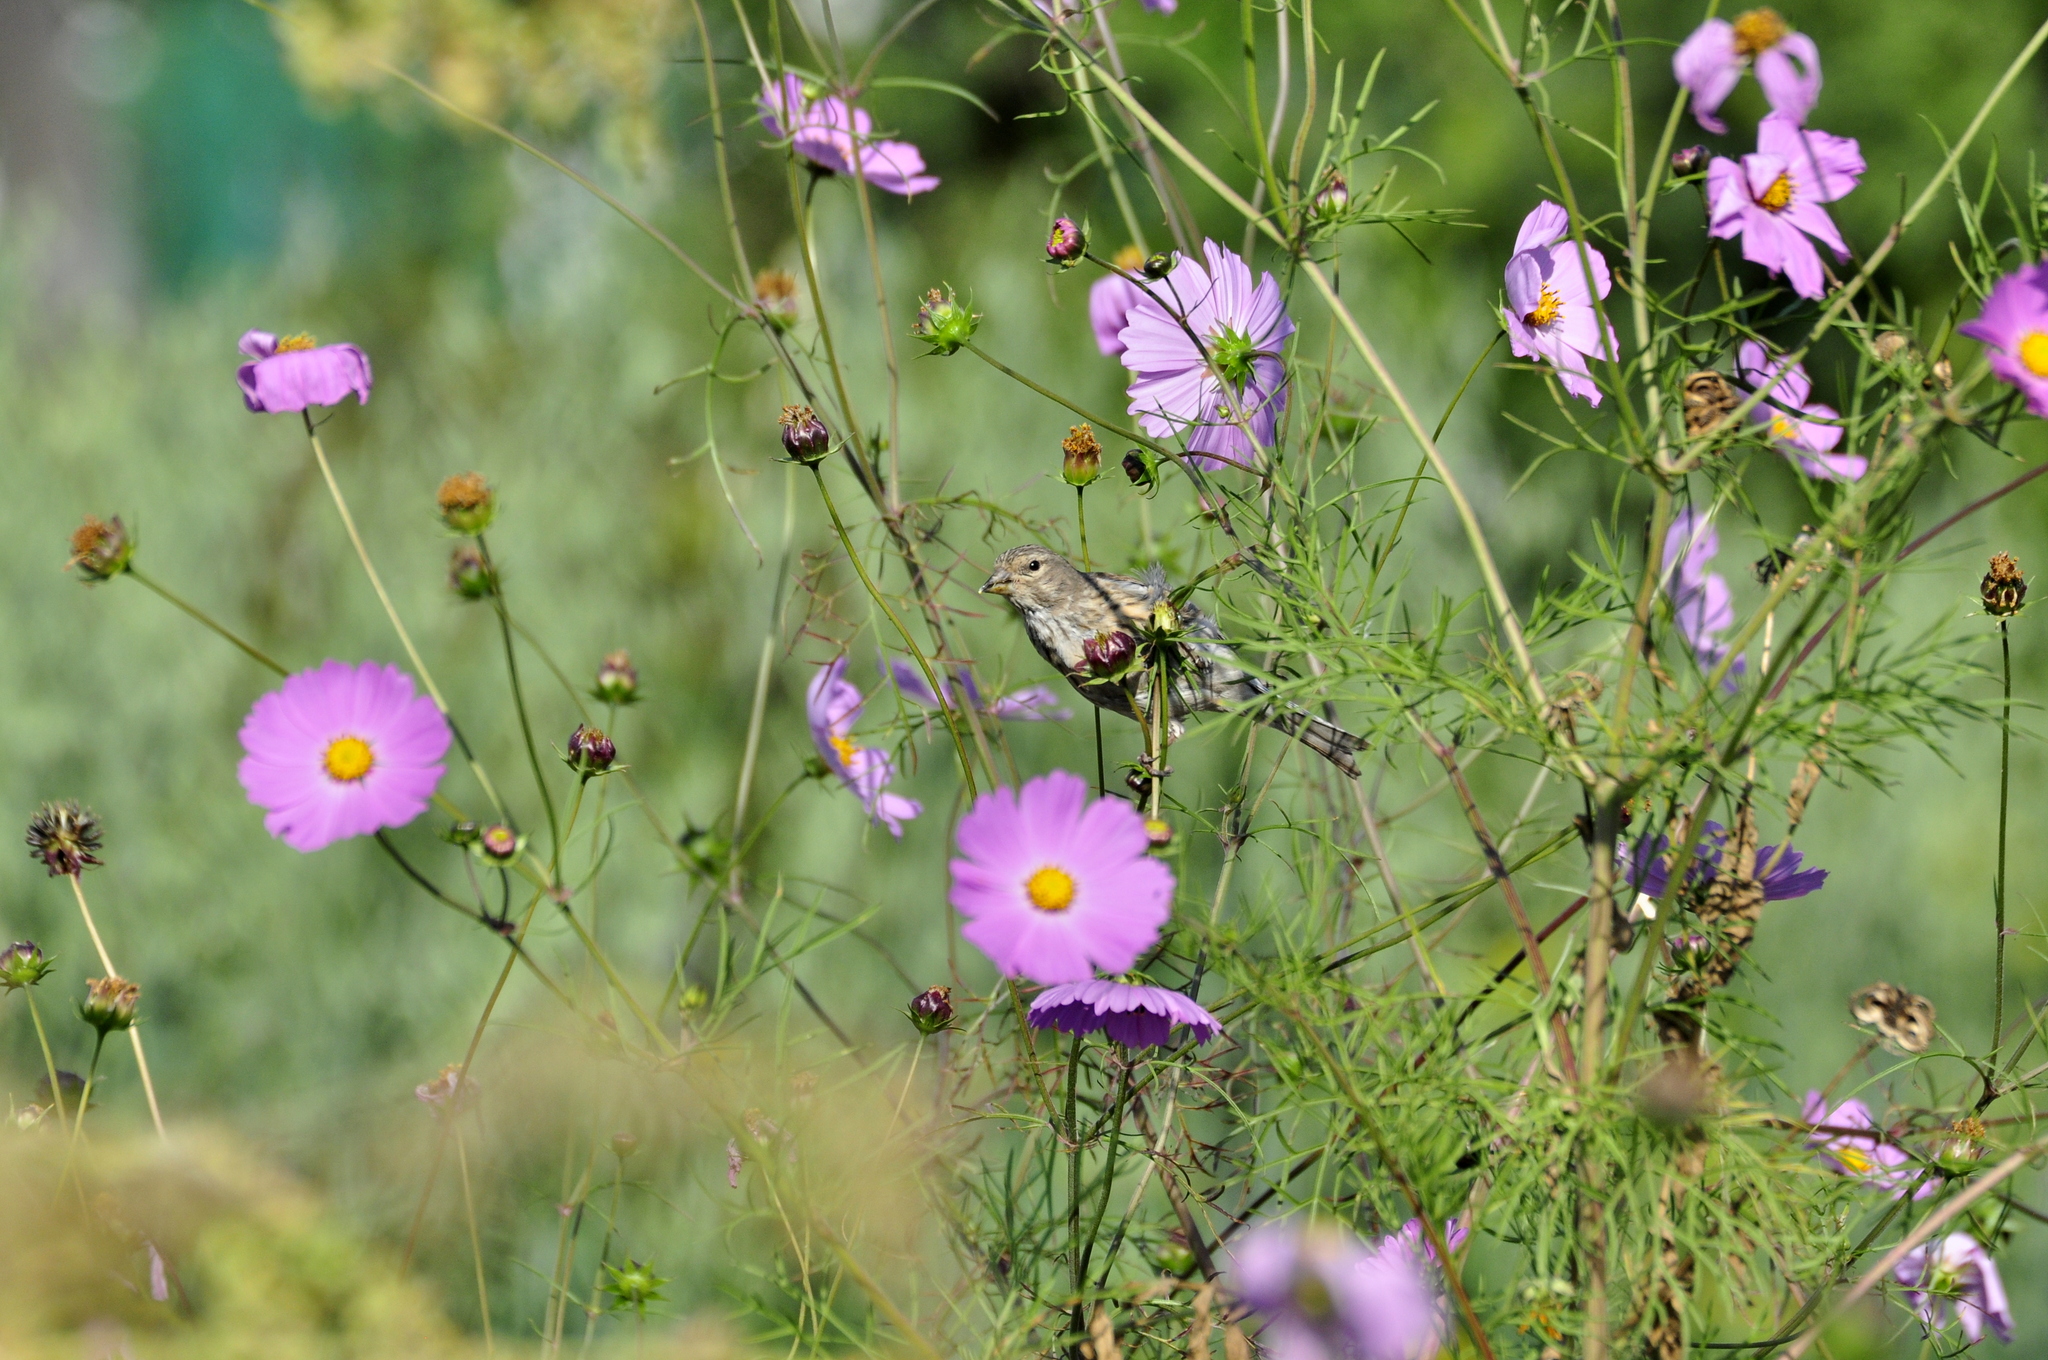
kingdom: Animalia
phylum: Chordata
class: Aves
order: Passeriformes
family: Fringillidae
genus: Linaria
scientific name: Linaria cannabina
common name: Common linnet
